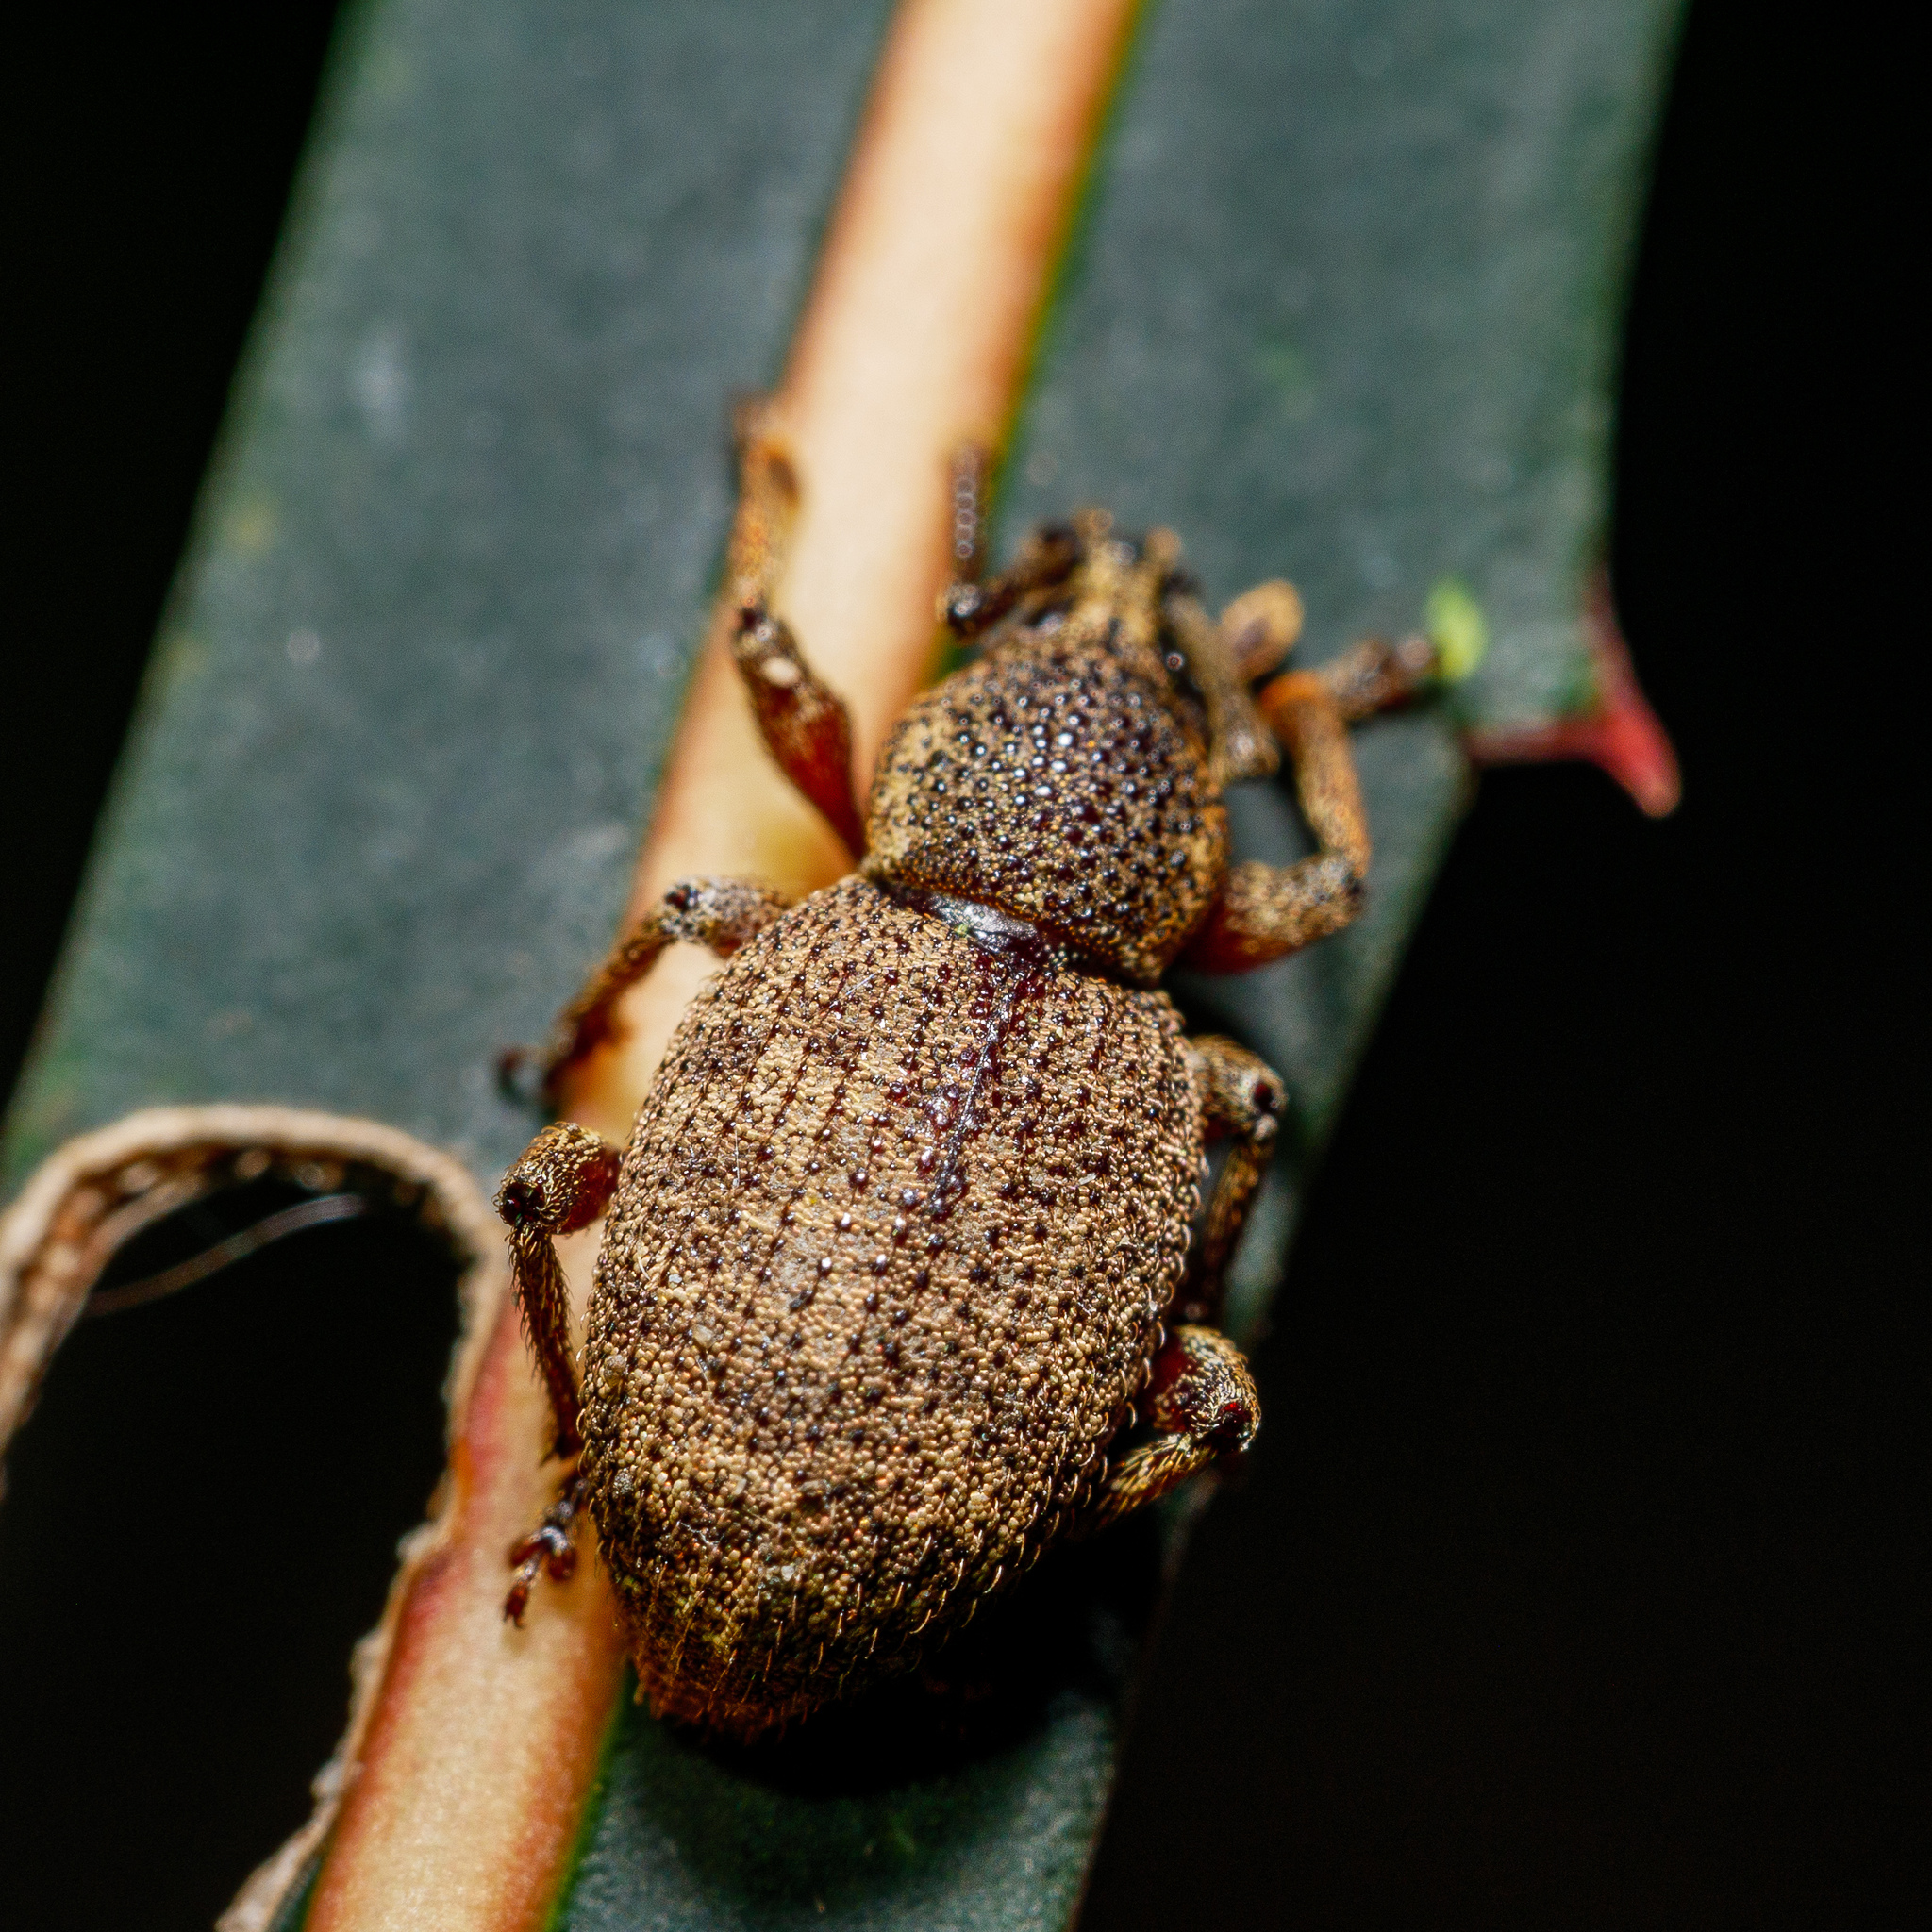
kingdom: Animalia
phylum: Arthropoda
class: Insecta
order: Coleoptera
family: Curculionidae
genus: Otiorhynchus
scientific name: Otiorhynchus singularis
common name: Clay-coloured weevil
